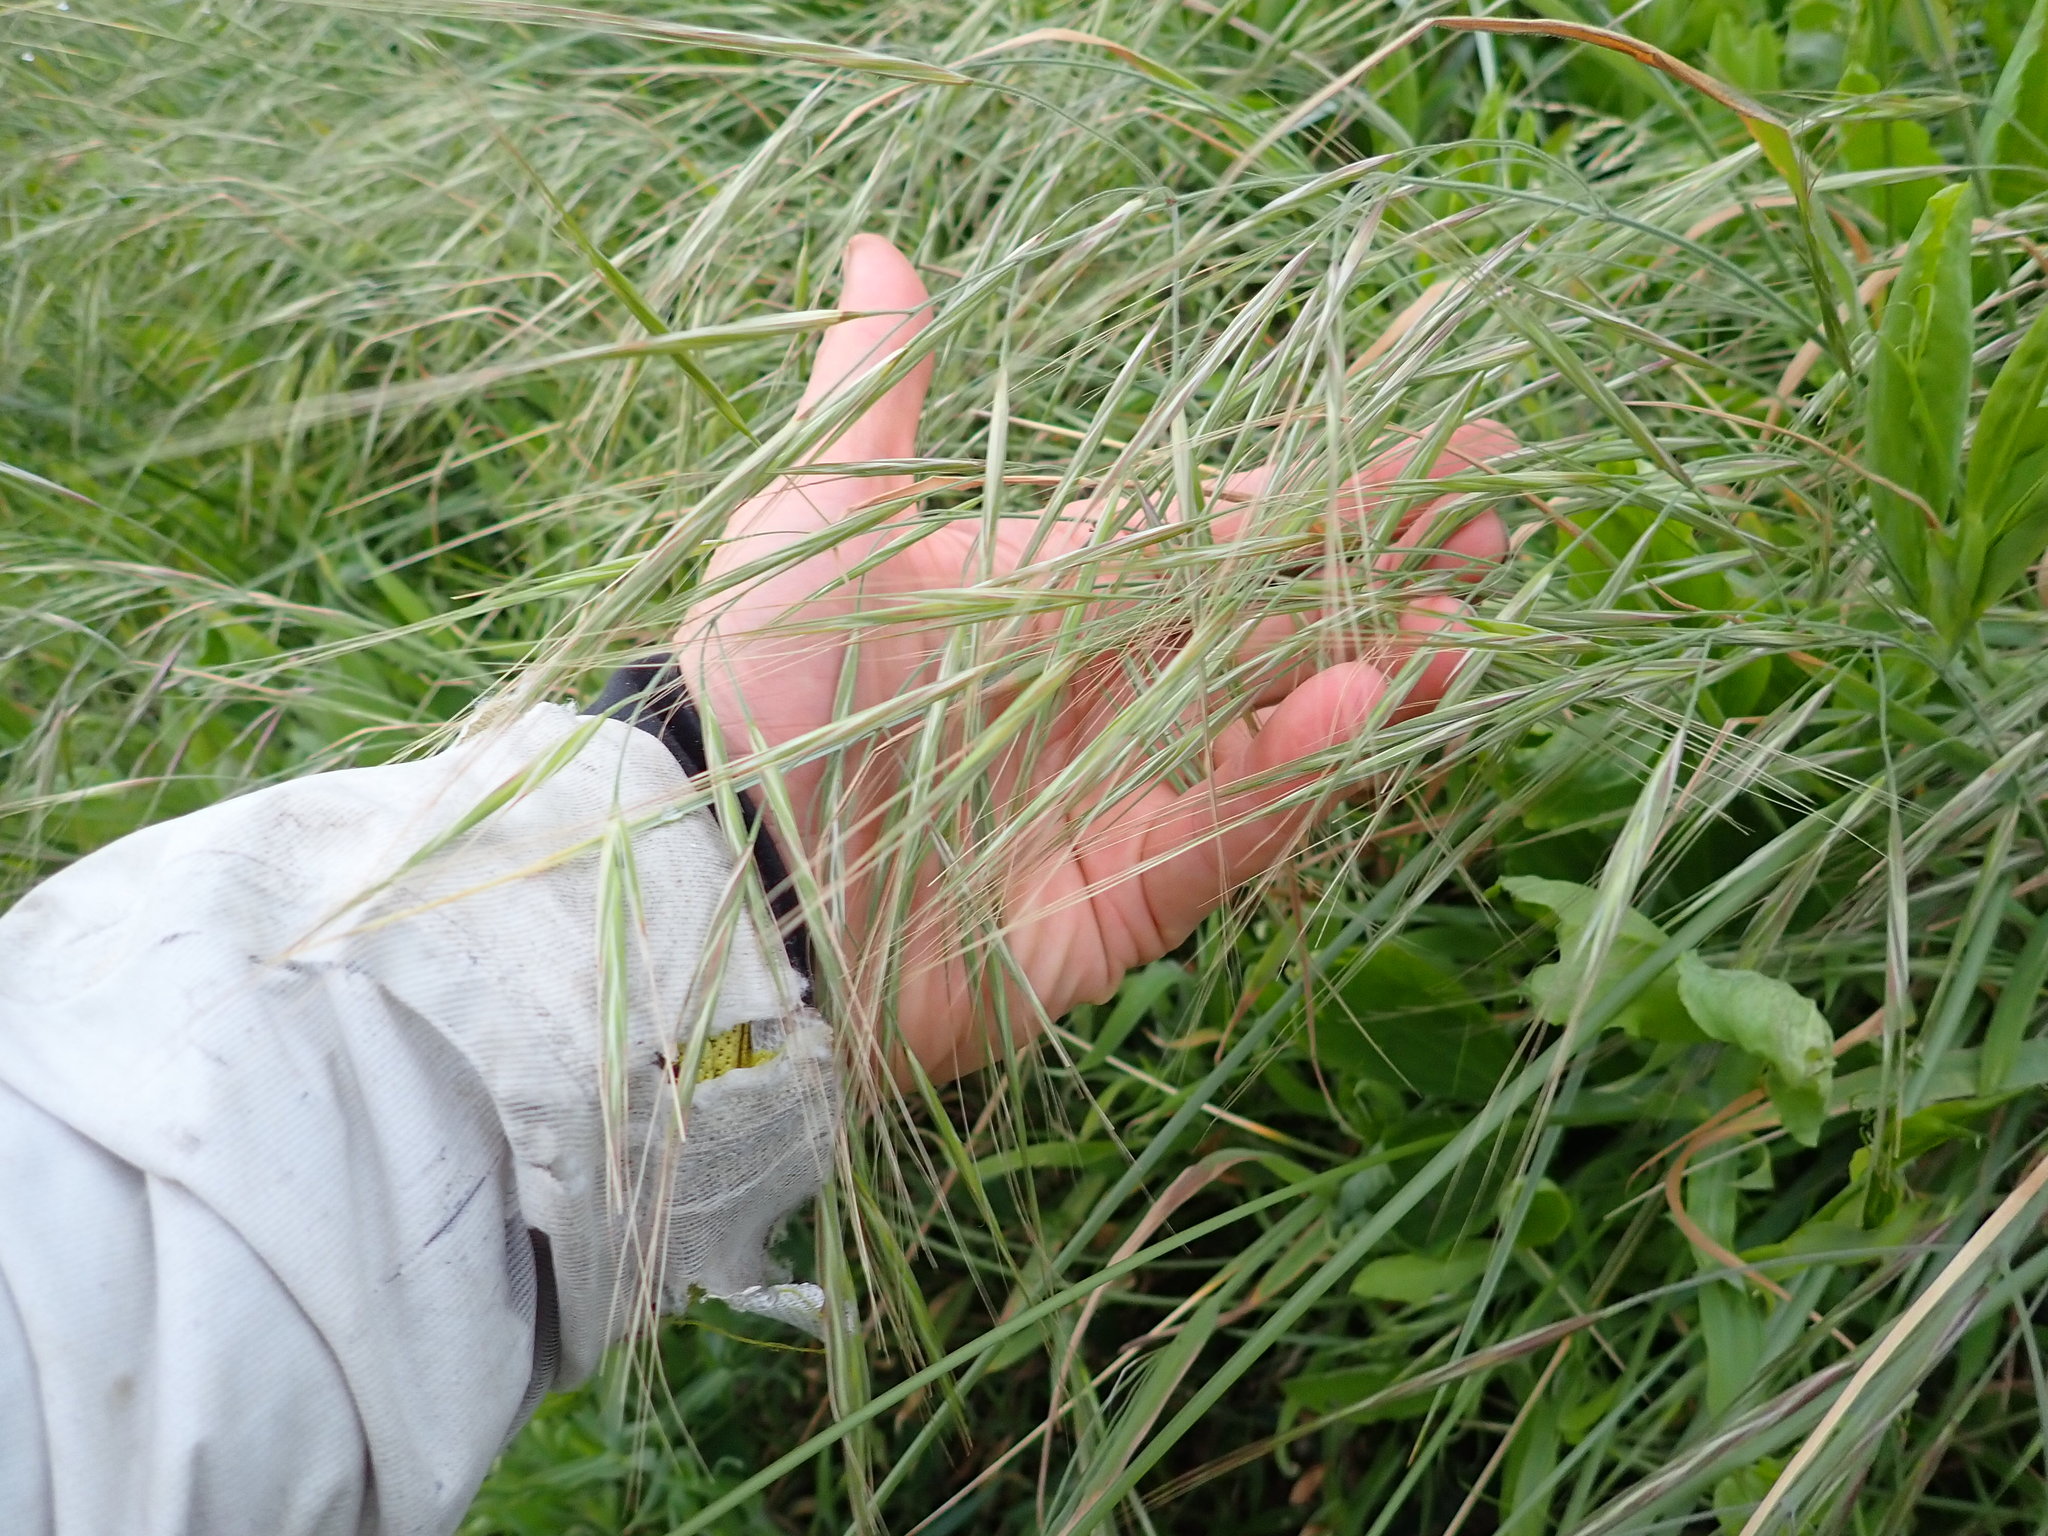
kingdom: Plantae
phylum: Tracheophyta
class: Liliopsida
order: Poales
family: Poaceae
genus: Bromus
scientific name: Bromus diandrus
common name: Ripgut brome
